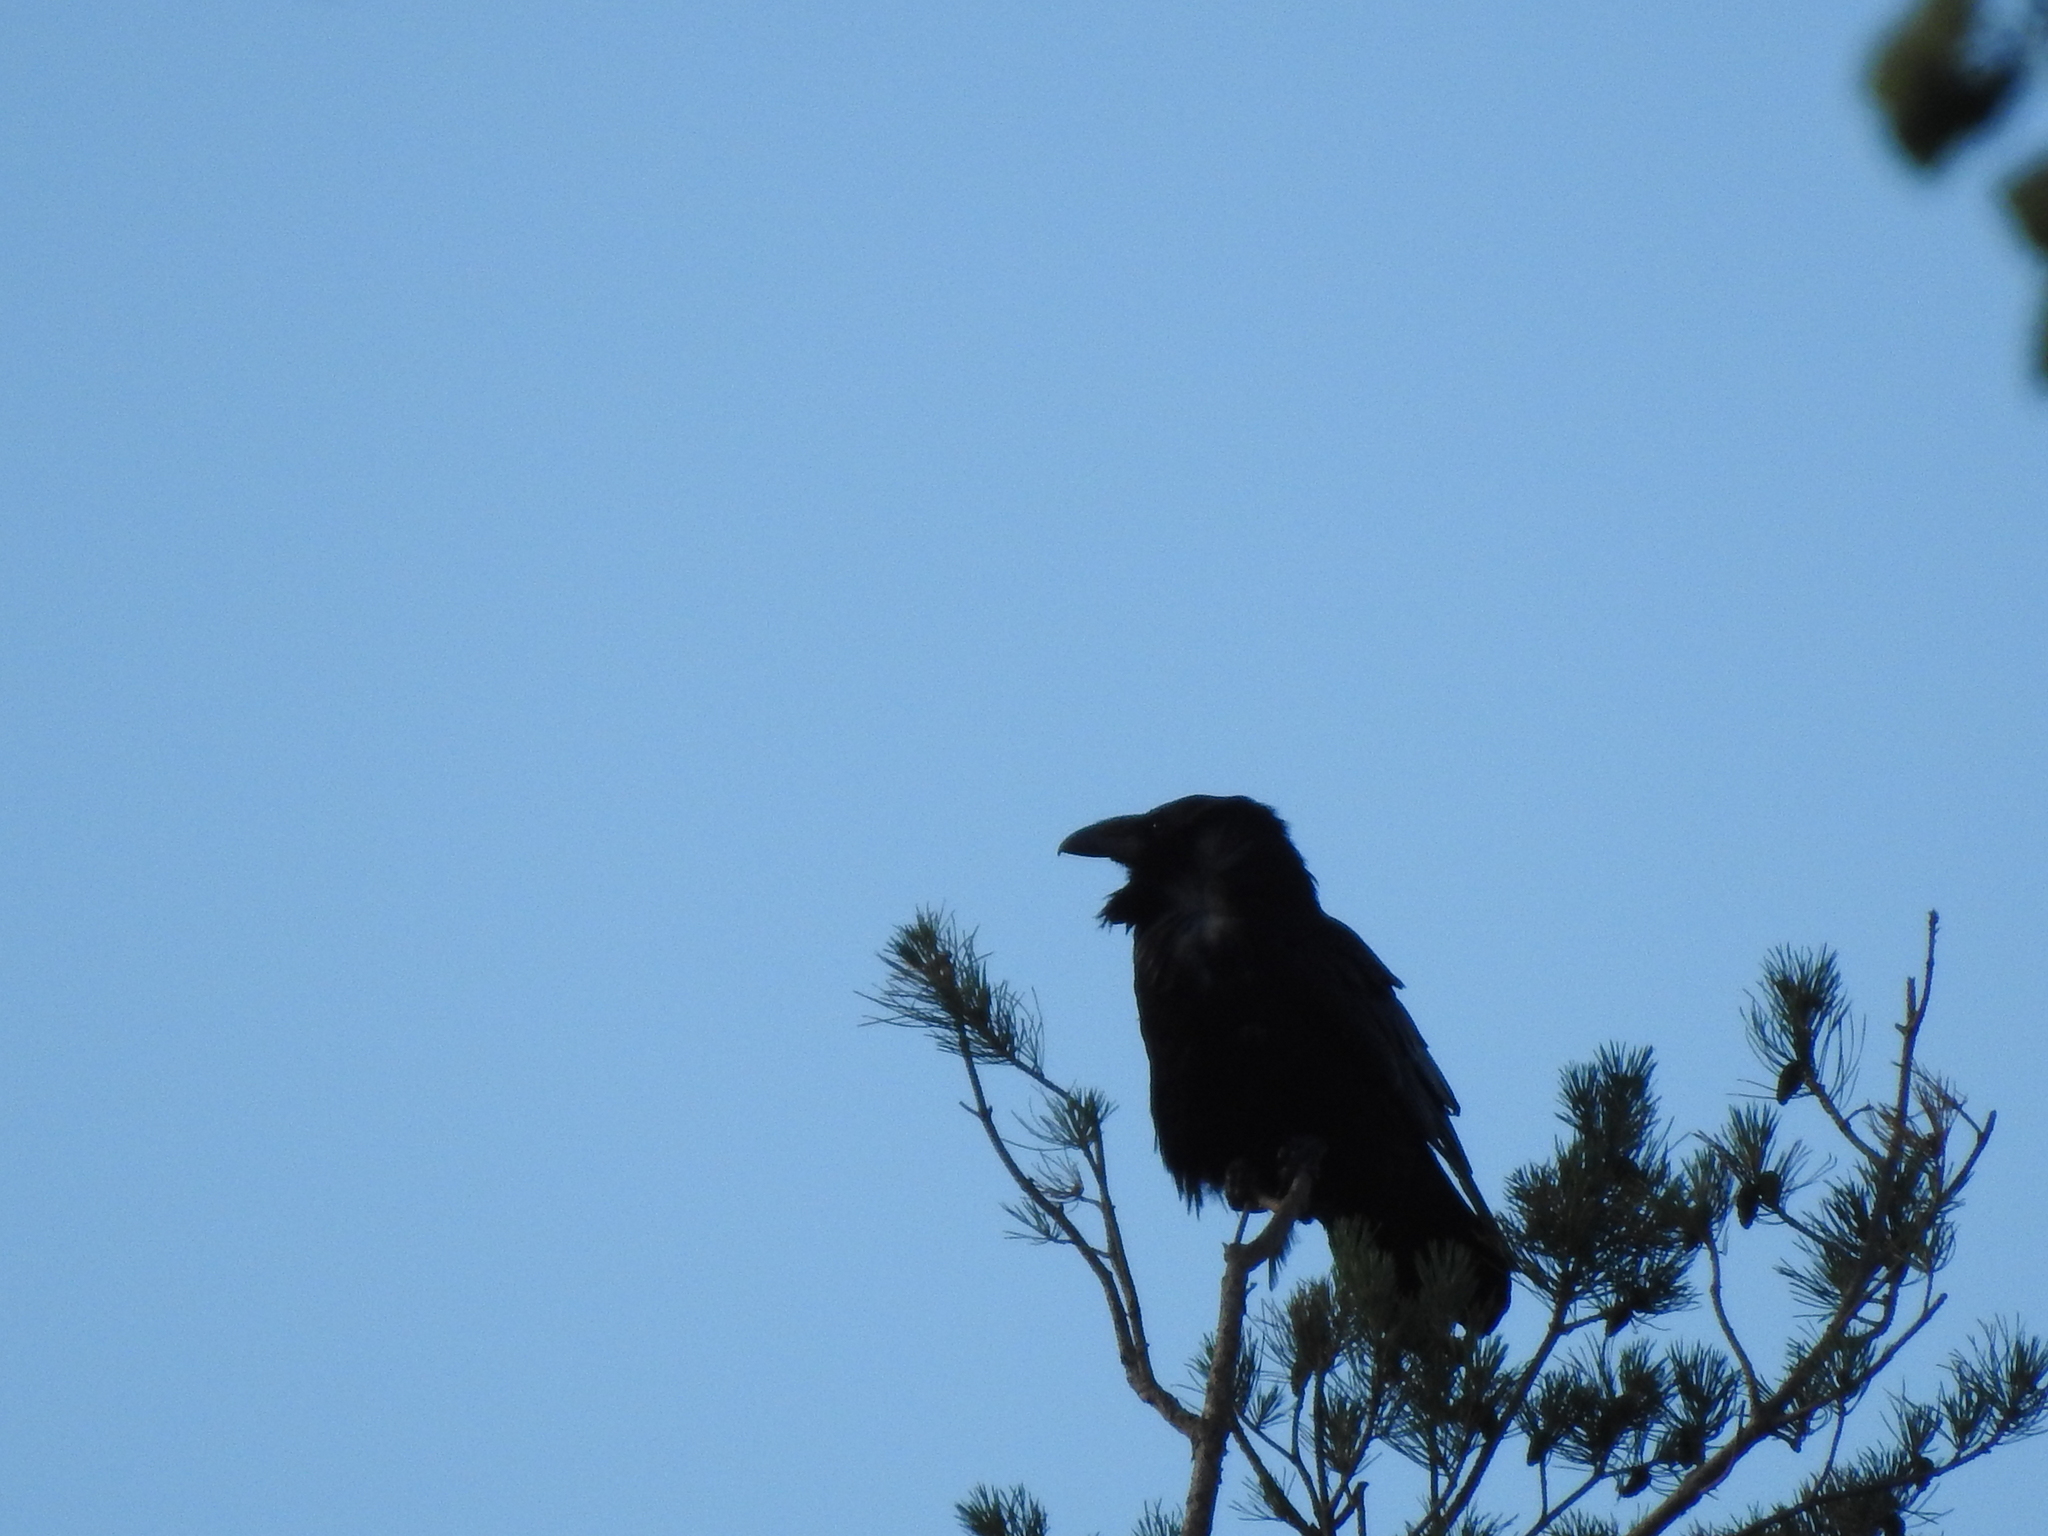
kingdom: Animalia
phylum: Chordata
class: Aves
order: Passeriformes
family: Corvidae
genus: Corvus
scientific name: Corvus corax
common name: Common raven
